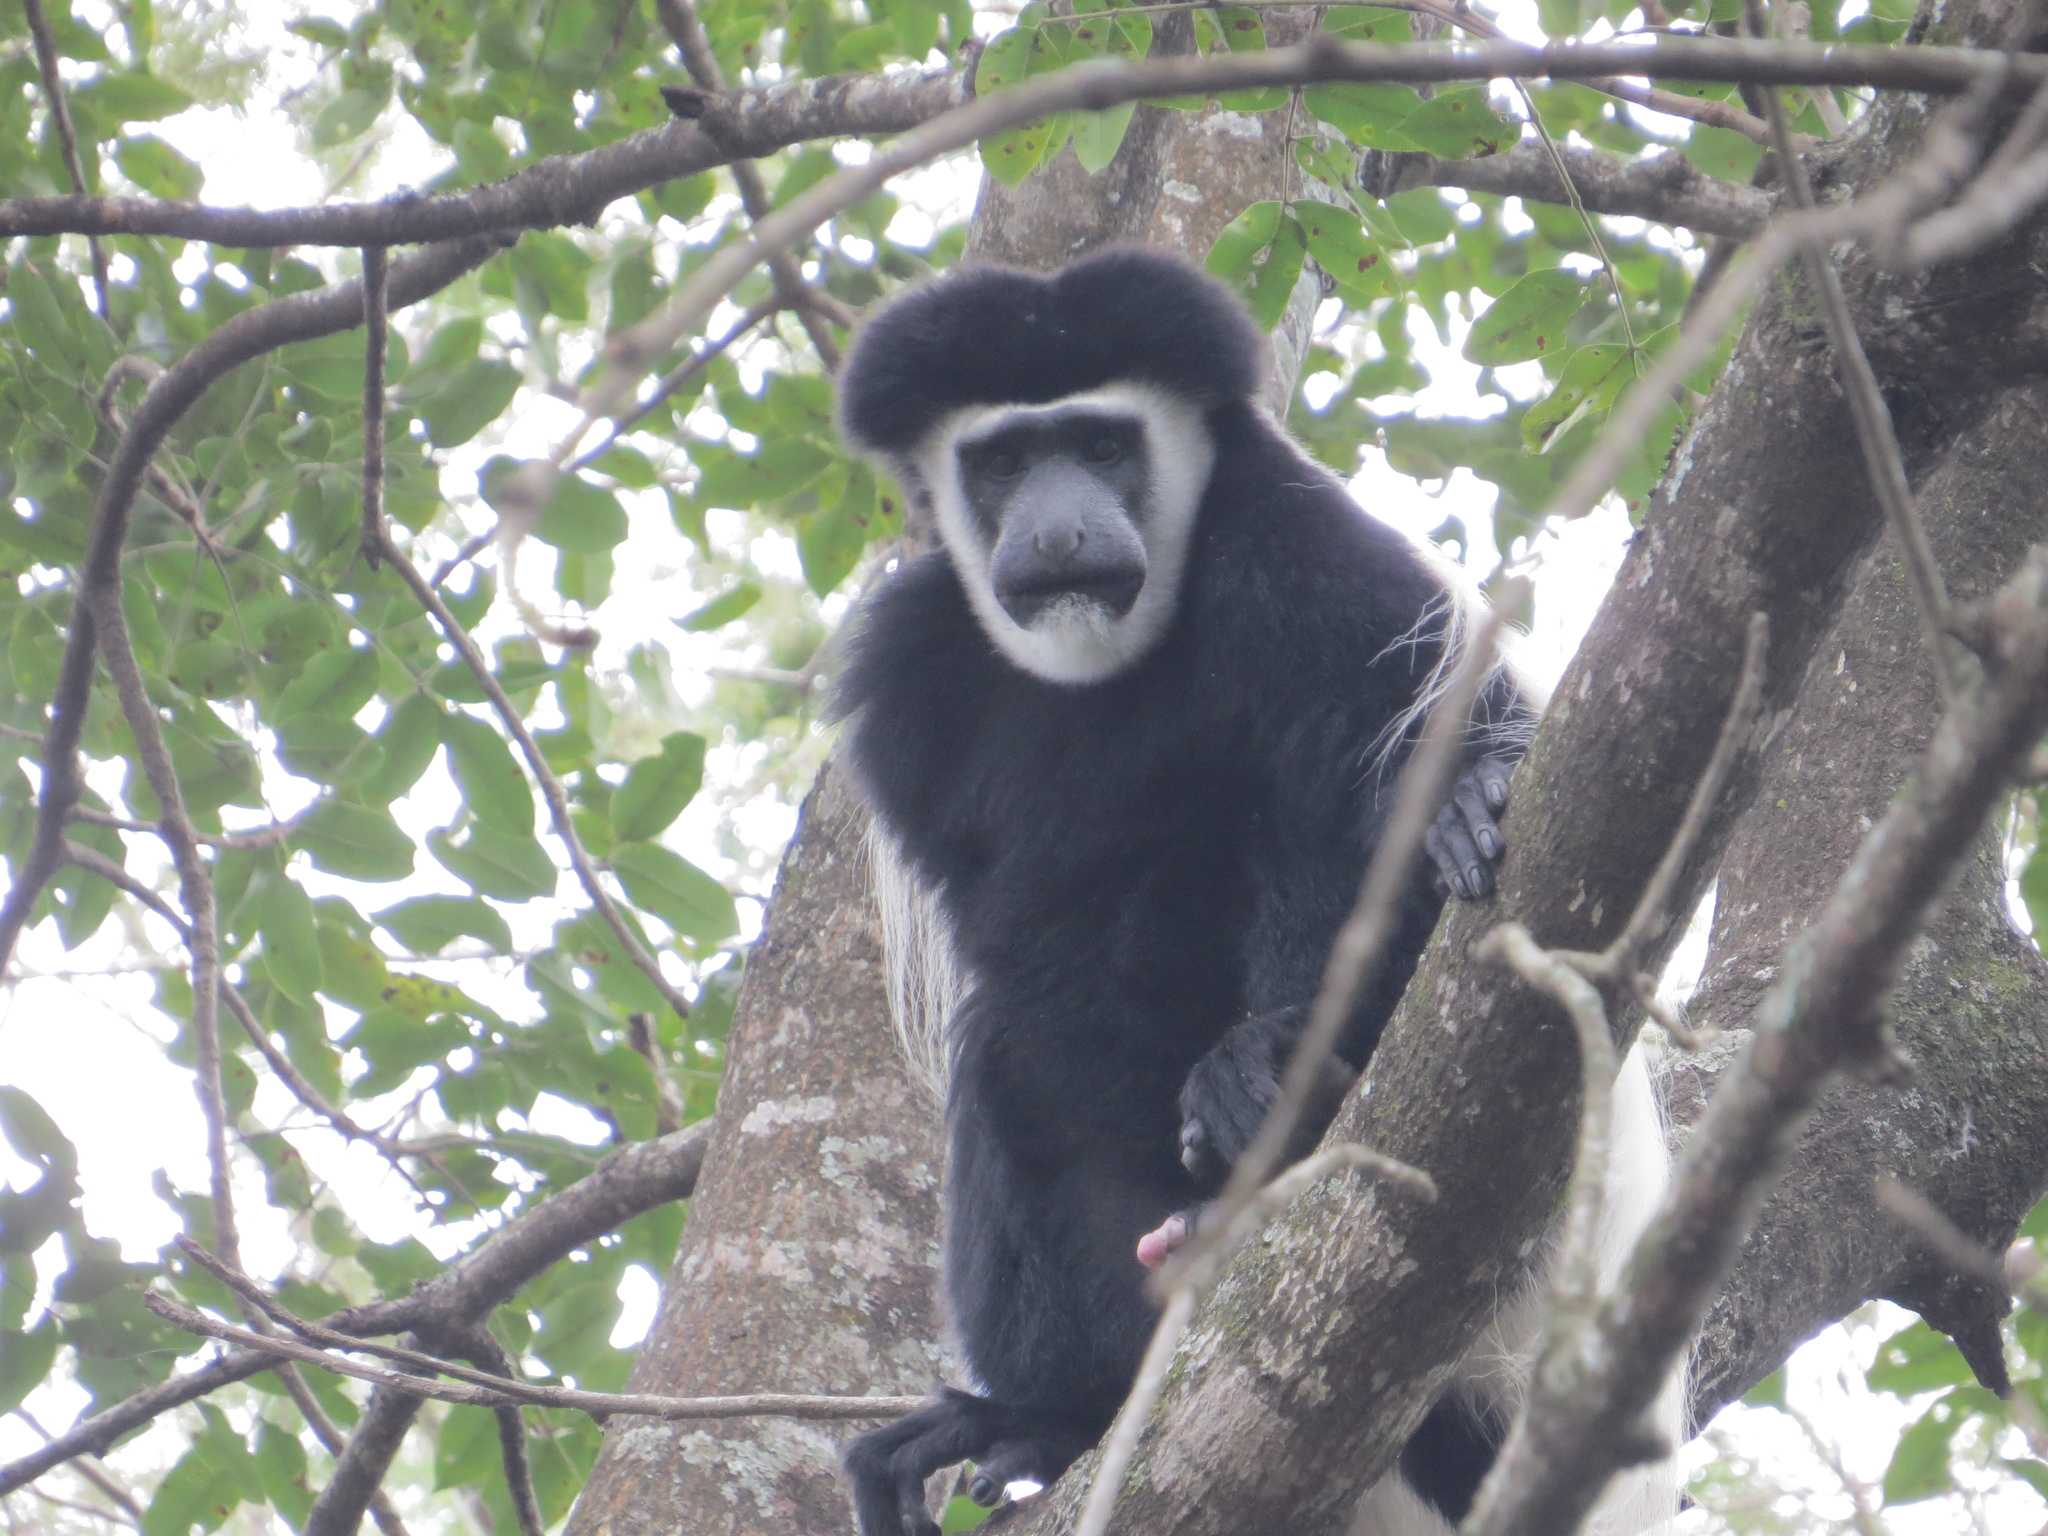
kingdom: Animalia
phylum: Chordata
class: Mammalia
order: Primates
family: Cercopithecidae
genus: Colobus
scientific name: Colobus caudatus
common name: Mount kilimanjaro guereza
